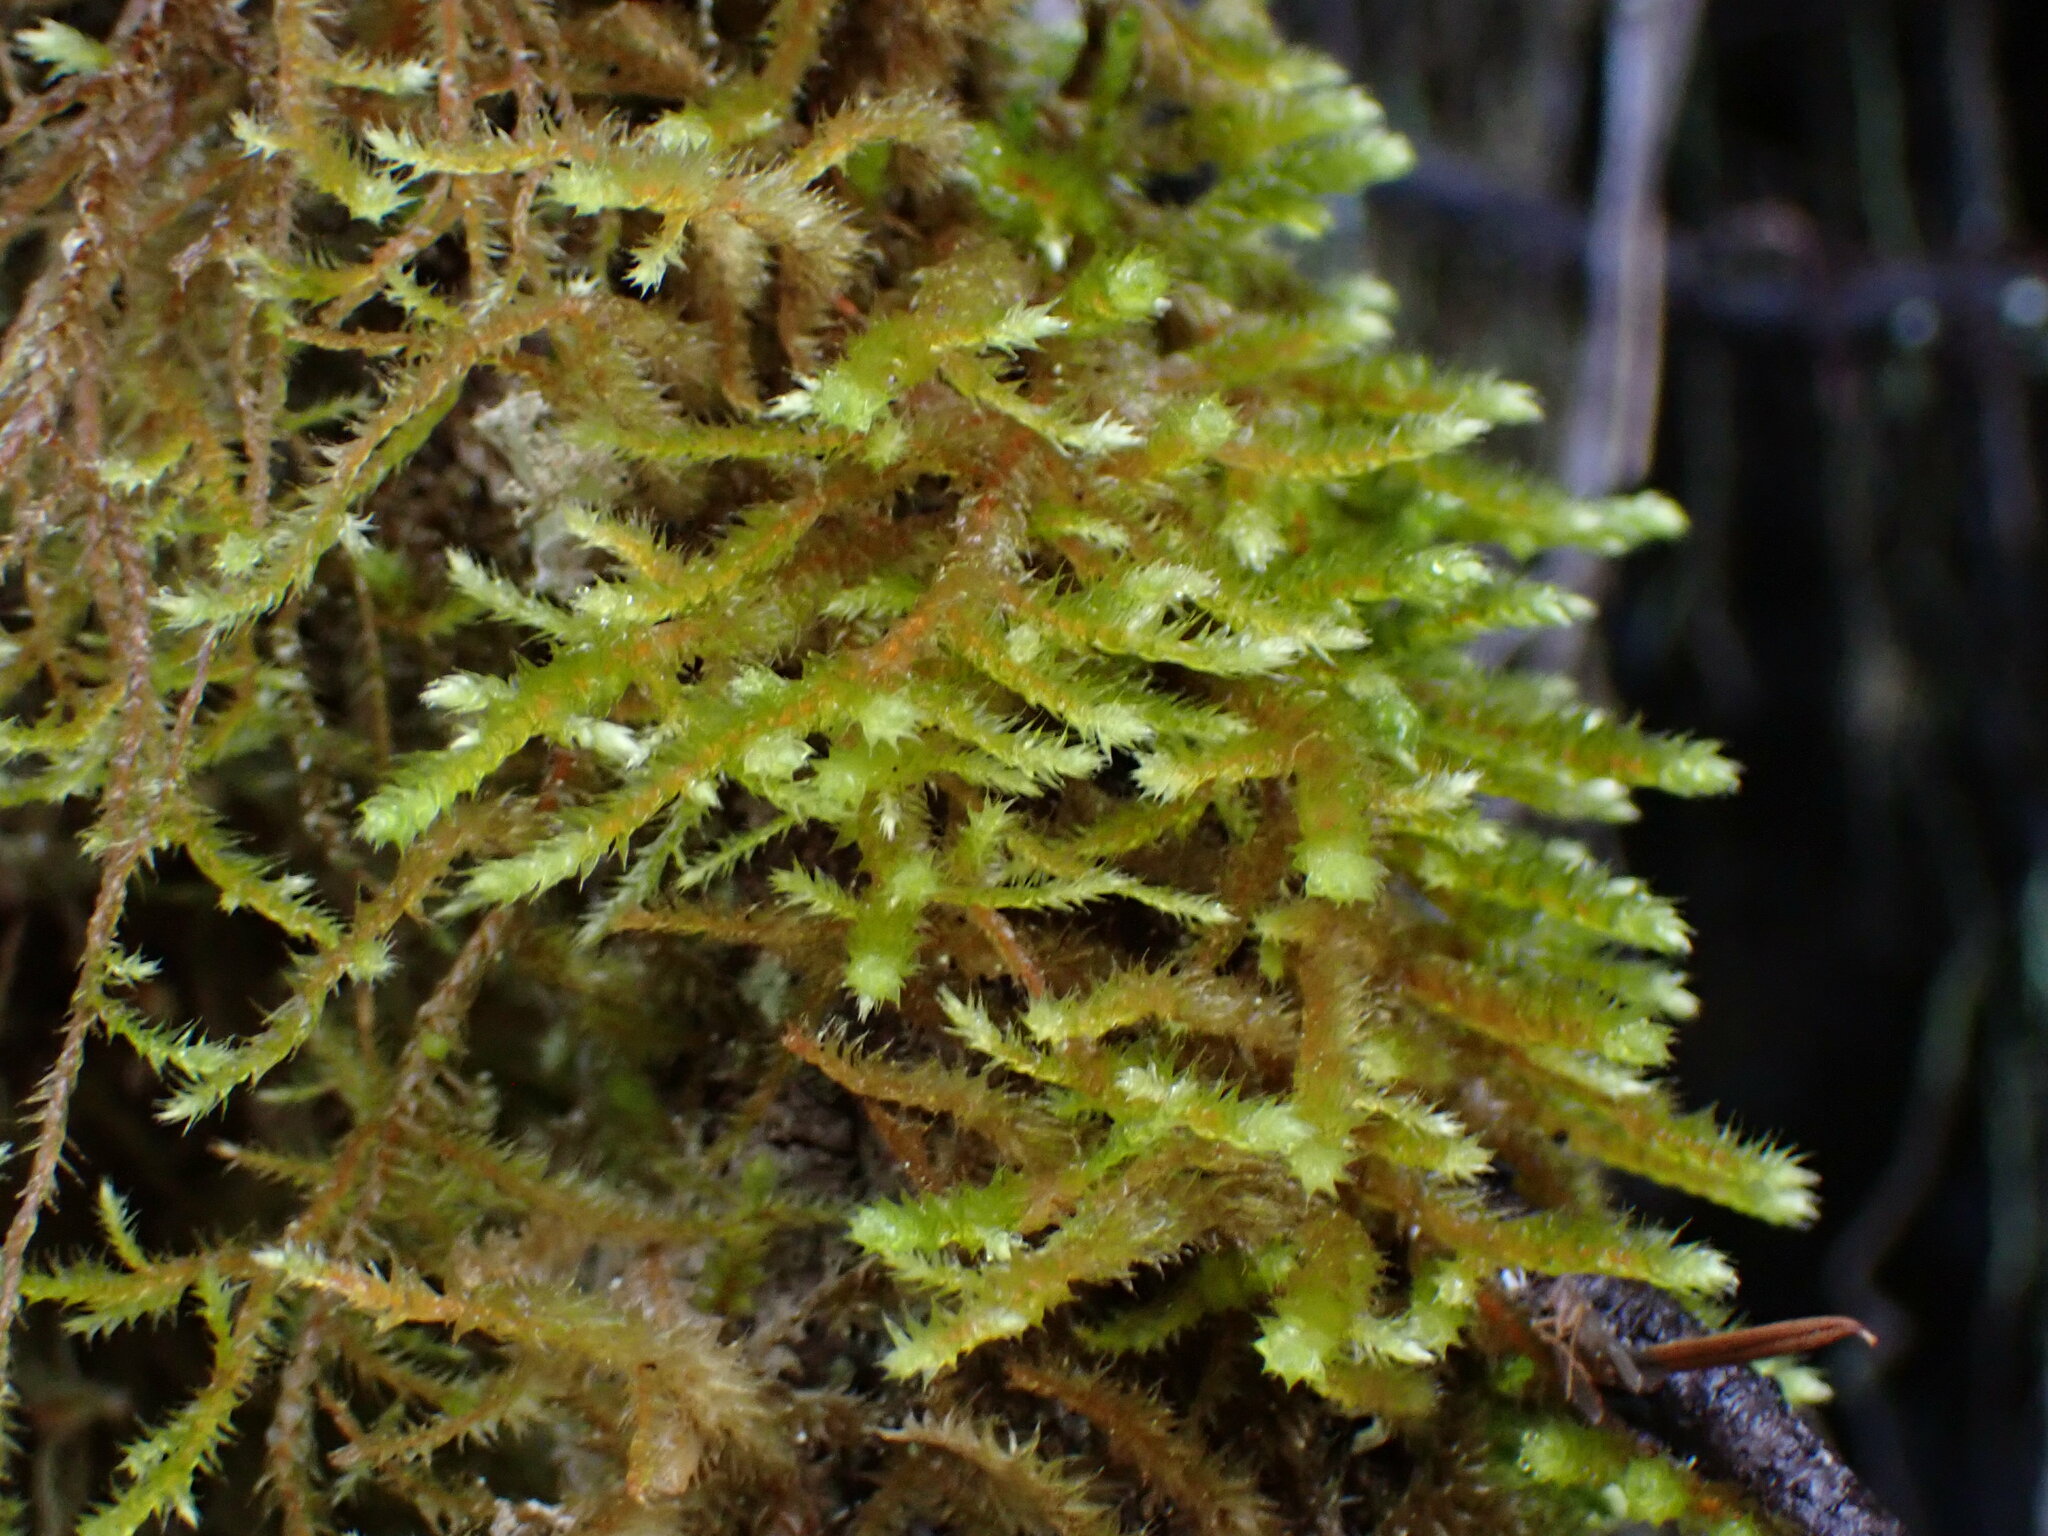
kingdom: Plantae
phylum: Bryophyta
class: Bryopsida
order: Hypnales
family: Antitrichiaceae
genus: Antitrichia
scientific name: Antitrichia curtipendula
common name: Pendulous wing-moss
